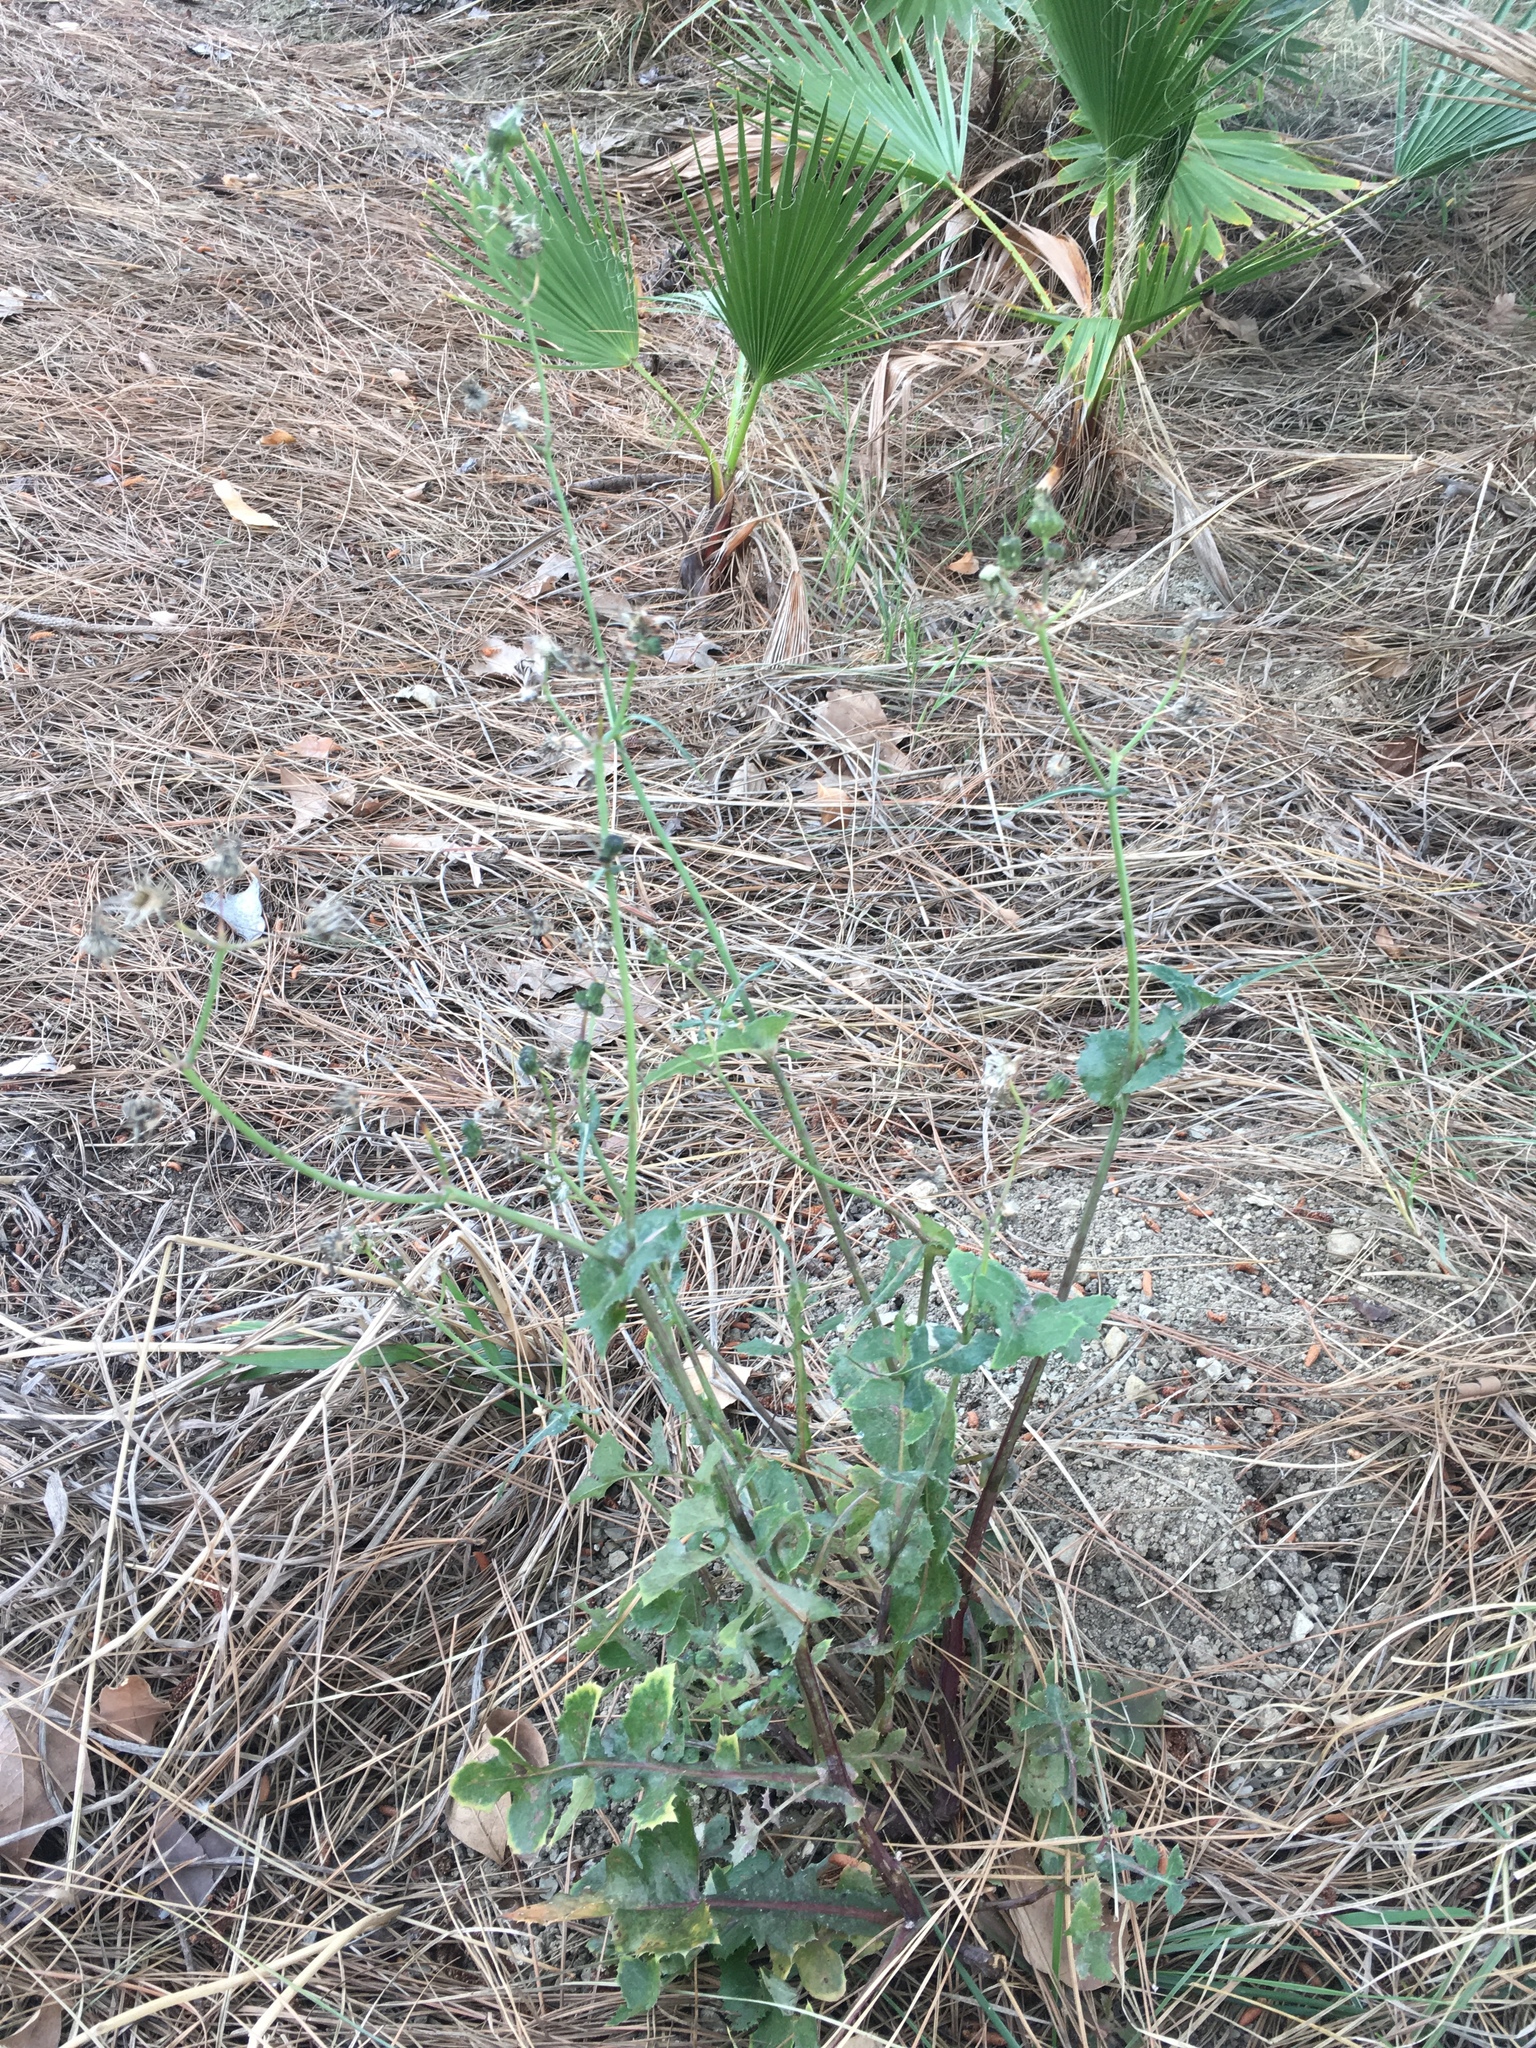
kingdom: Plantae
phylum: Tracheophyta
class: Magnoliopsida
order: Asterales
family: Asteraceae
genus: Sonchus
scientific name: Sonchus oleraceus
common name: Common sowthistle
